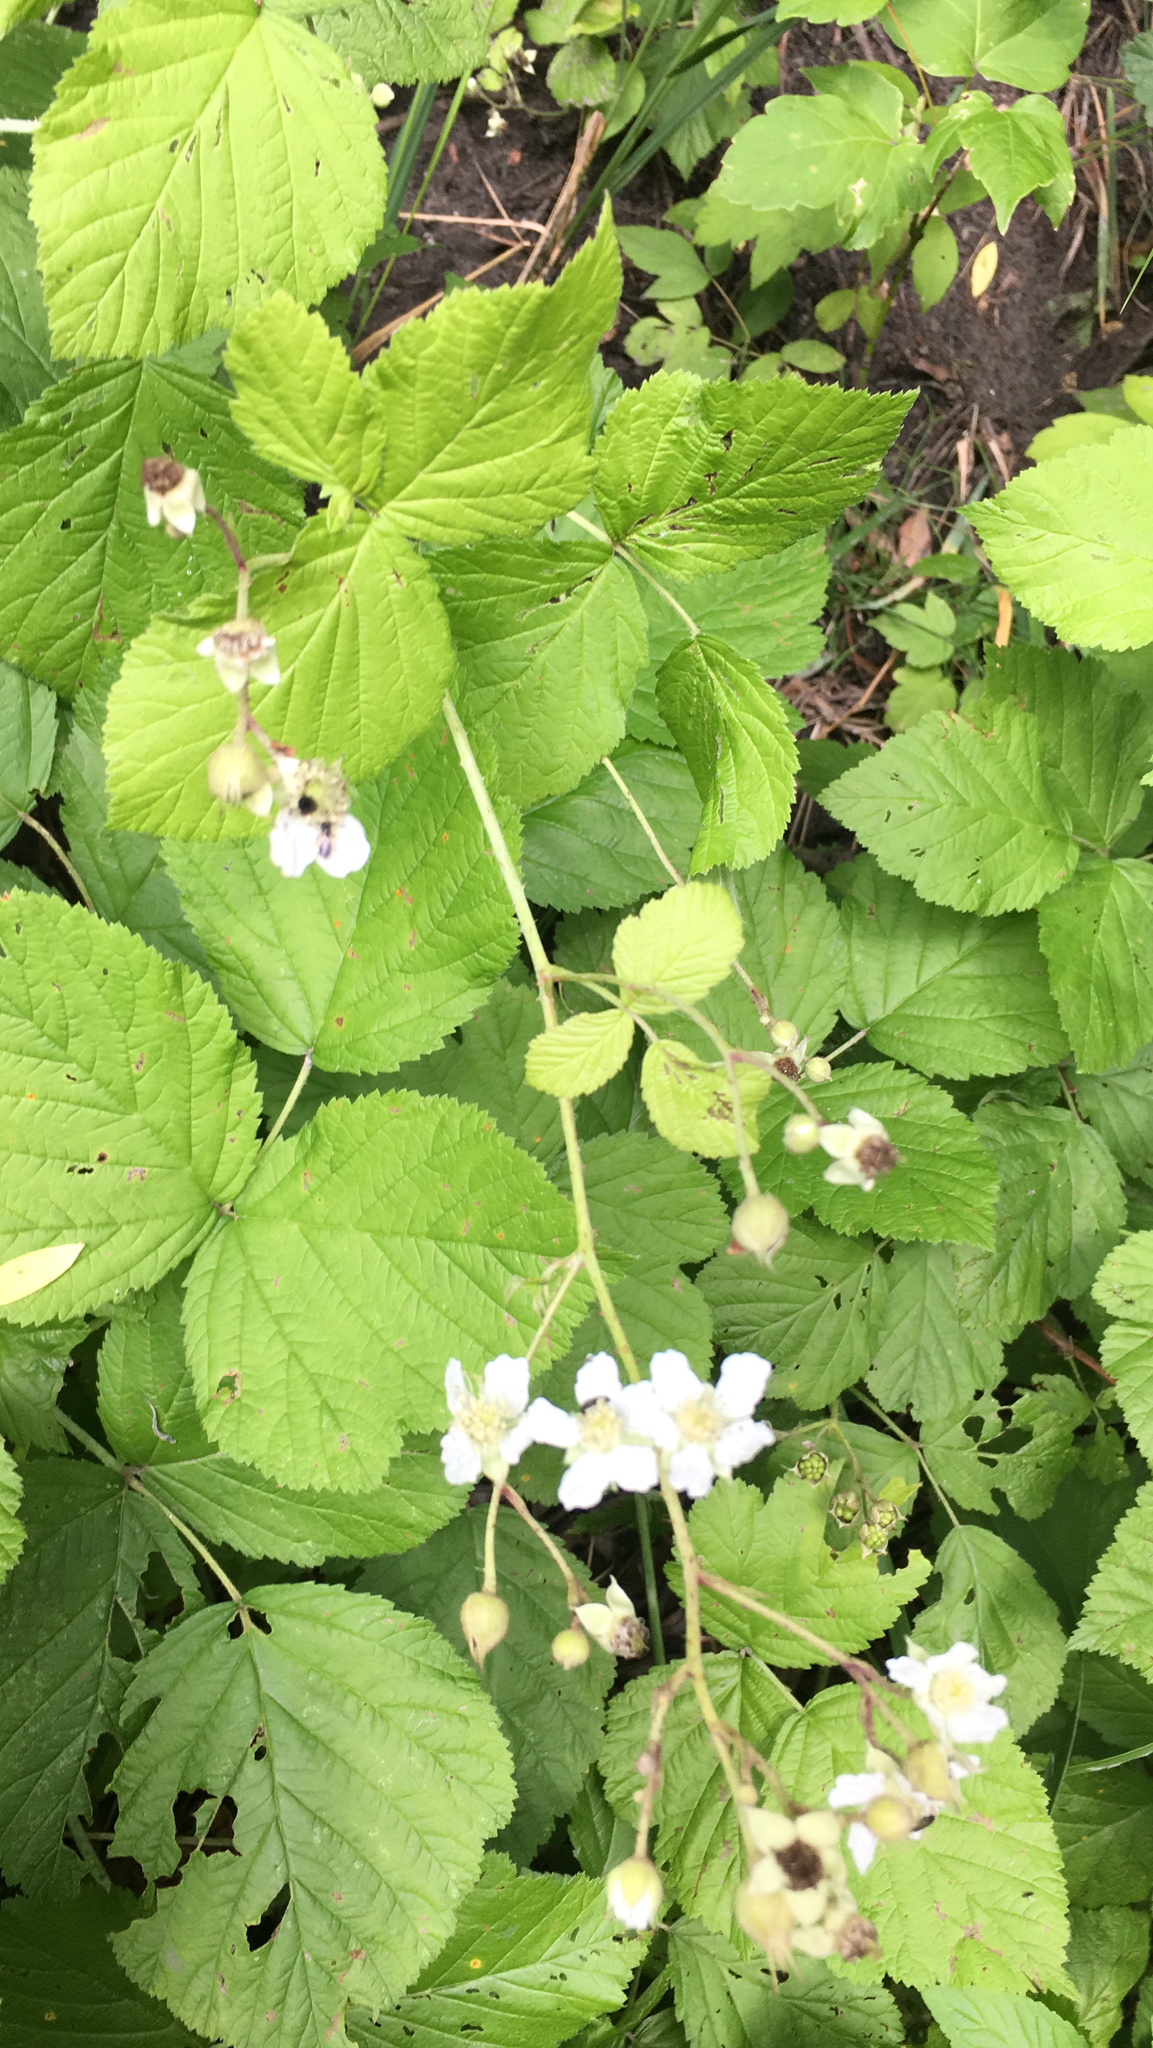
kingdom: Plantae
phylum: Tracheophyta
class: Magnoliopsida
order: Rosales
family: Rosaceae
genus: Rubus
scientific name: Rubus caesius
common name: Dewberry
